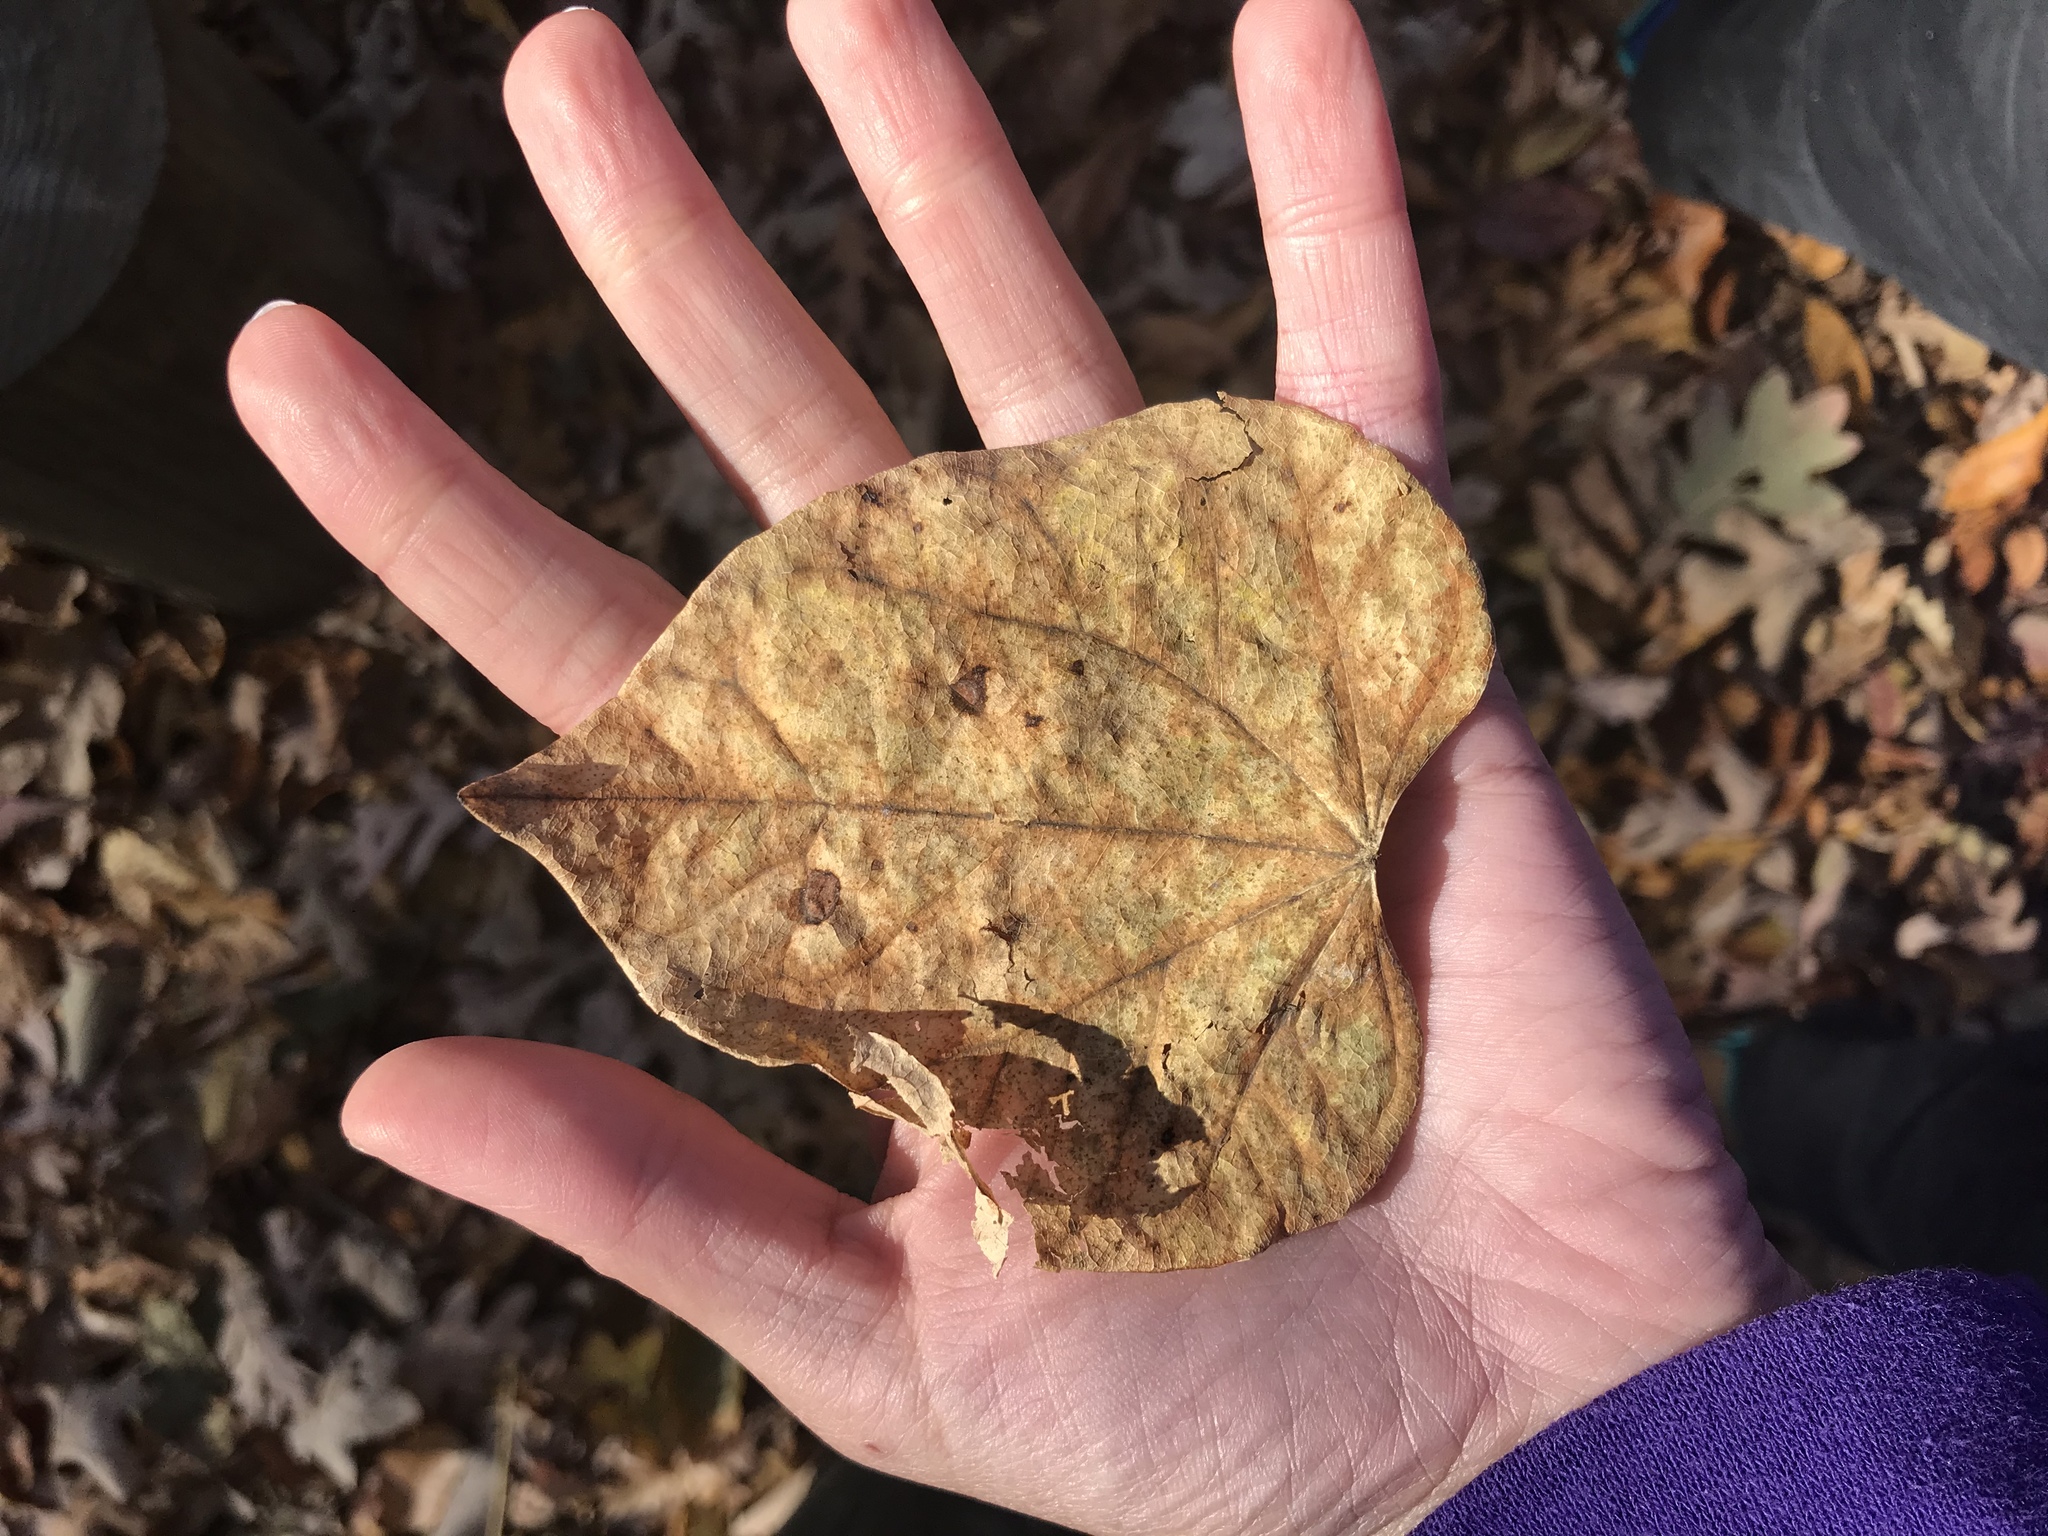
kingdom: Plantae
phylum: Tracheophyta
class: Magnoliopsida
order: Fabales
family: Fabaceae
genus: Cercis
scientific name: Cercis canadensis
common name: Eastern redbud
